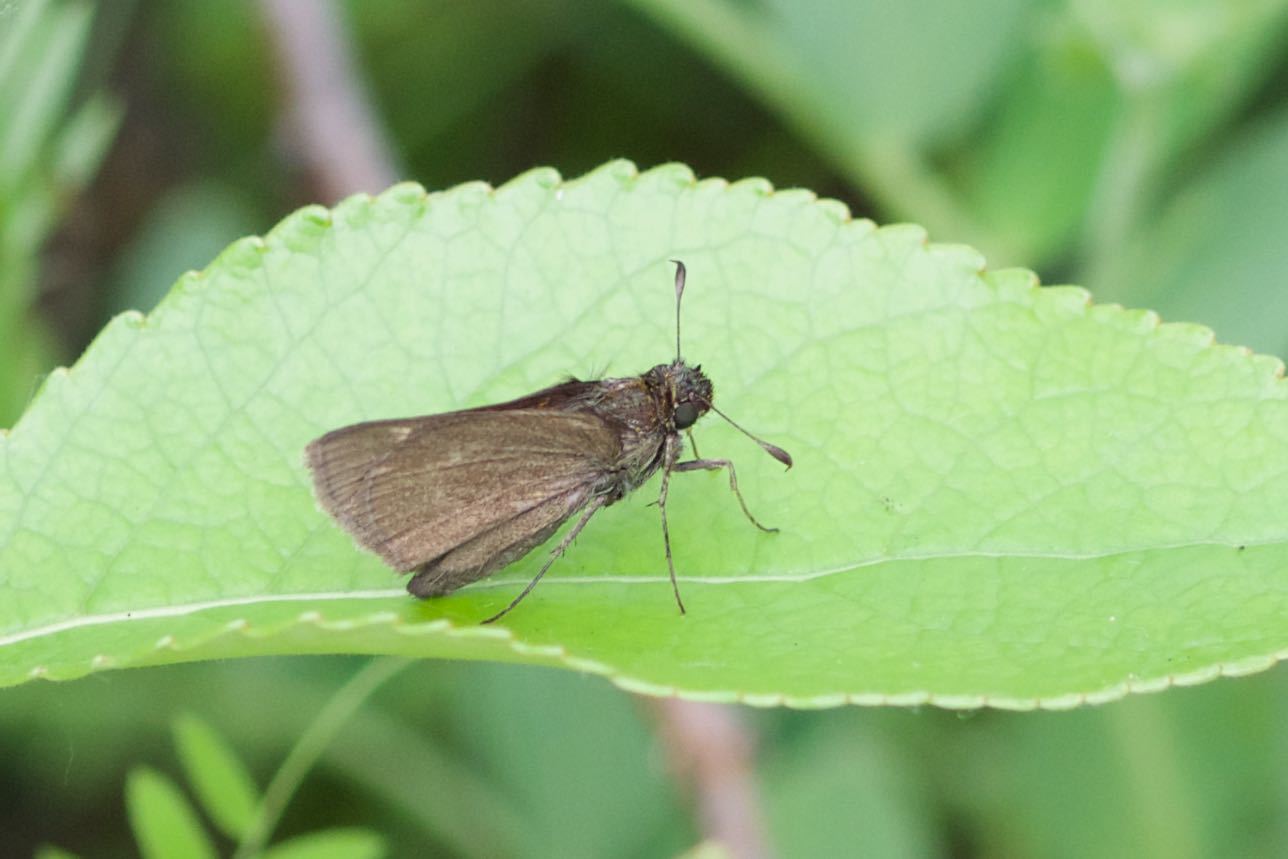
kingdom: Animalia
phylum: Arthropoda
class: Insecta
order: Lepidoptera
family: Hesperiidae
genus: Polites
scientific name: Polites themistocles
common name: Tawny-edged skipper
